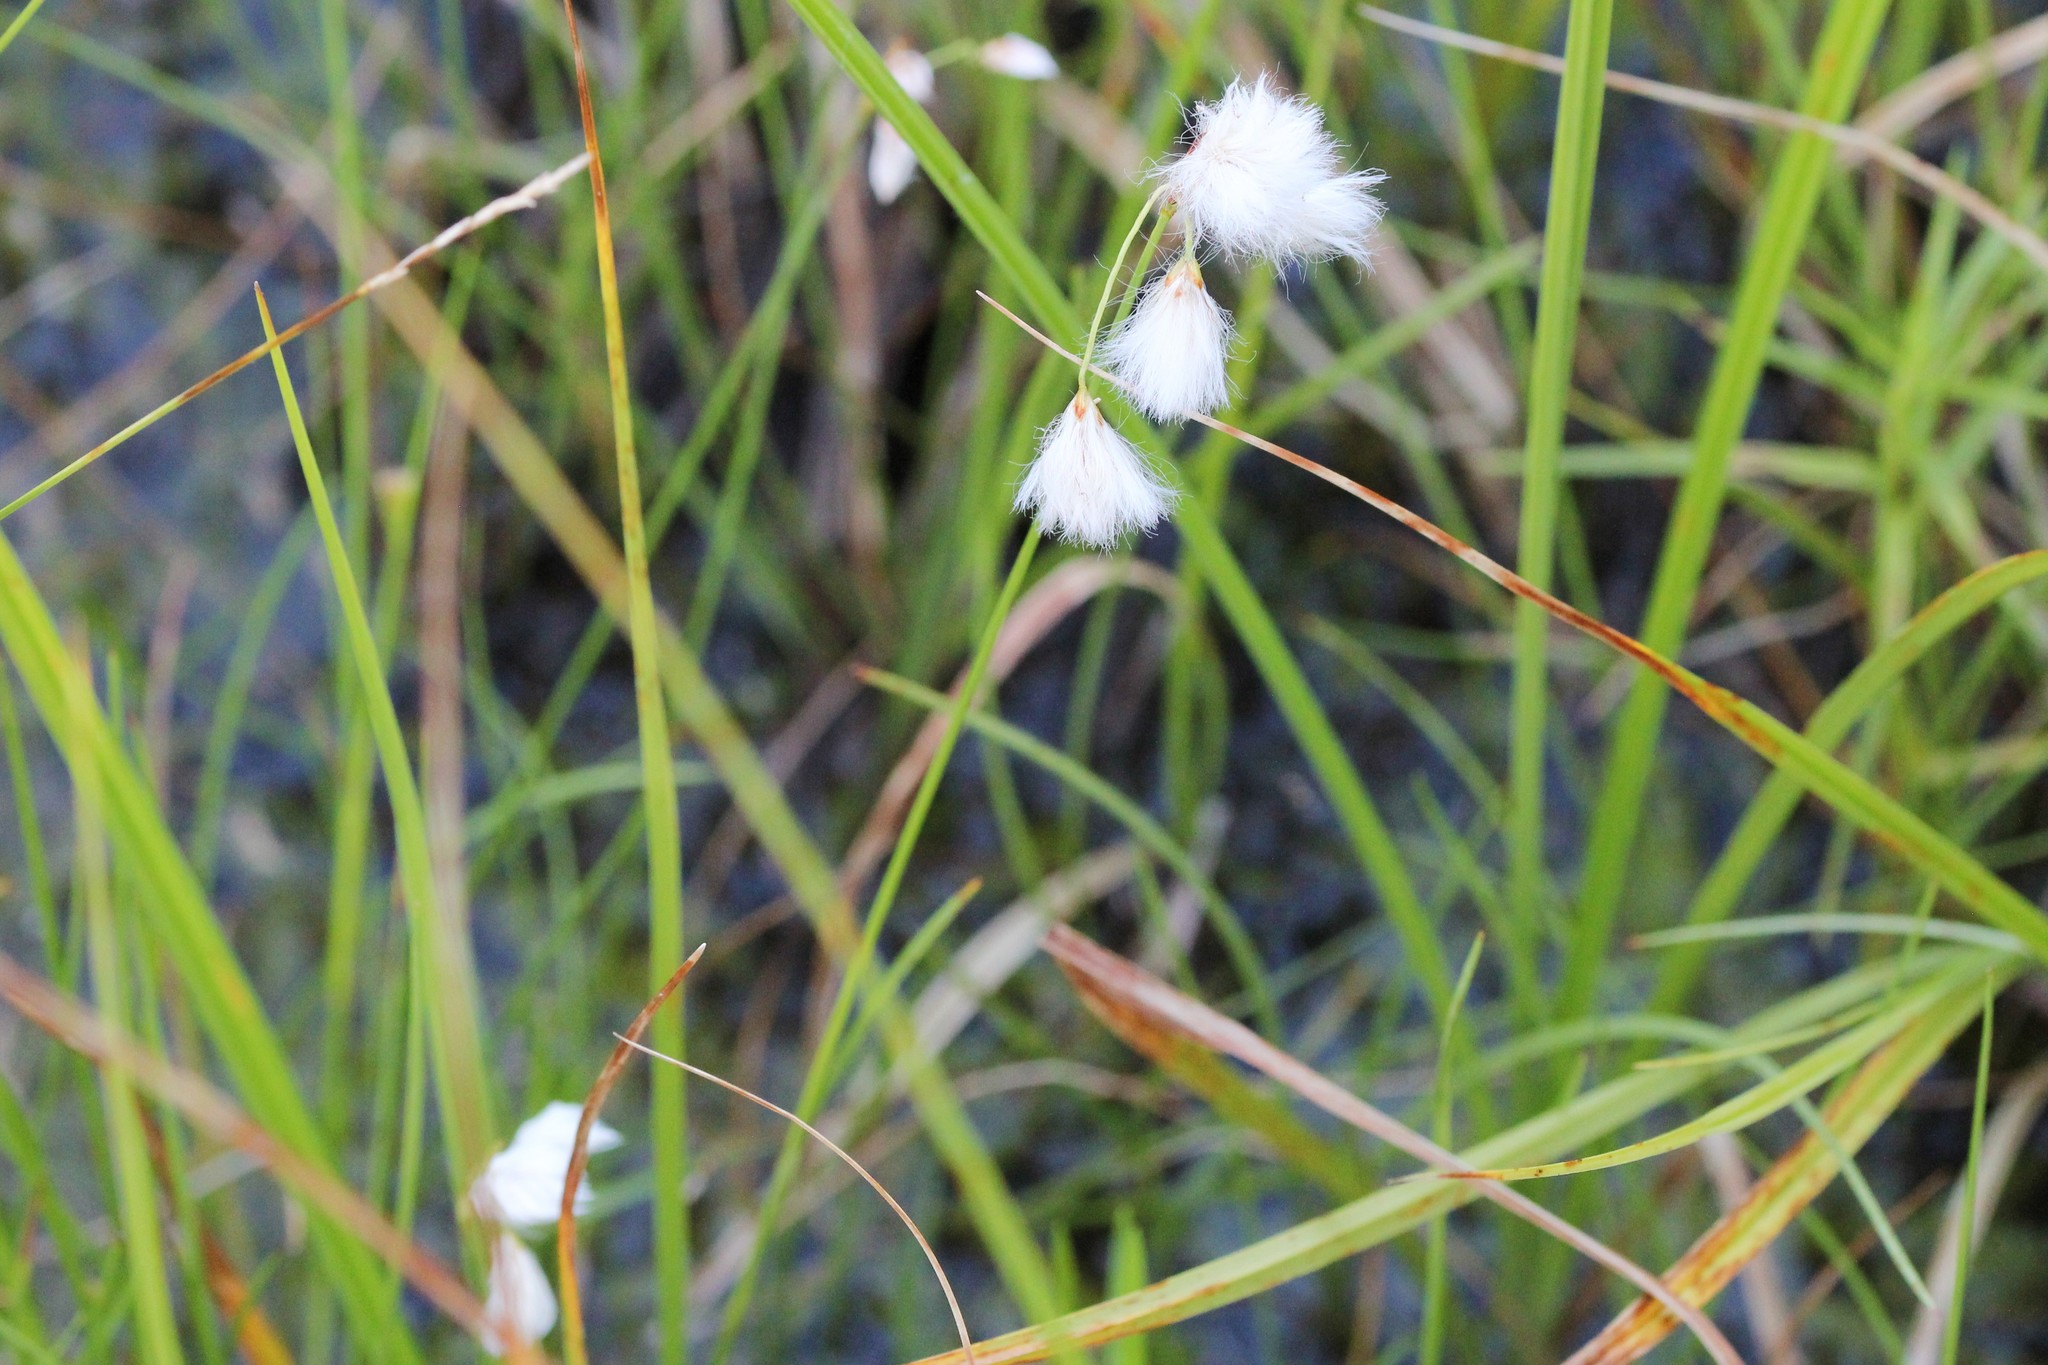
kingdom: Plantae
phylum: Tracheophyta
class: Liliopsida
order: Poales
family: Cyperaceae
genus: Eriophorum
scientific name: Eriophorum tenellum
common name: Few-nerved cottongrass
